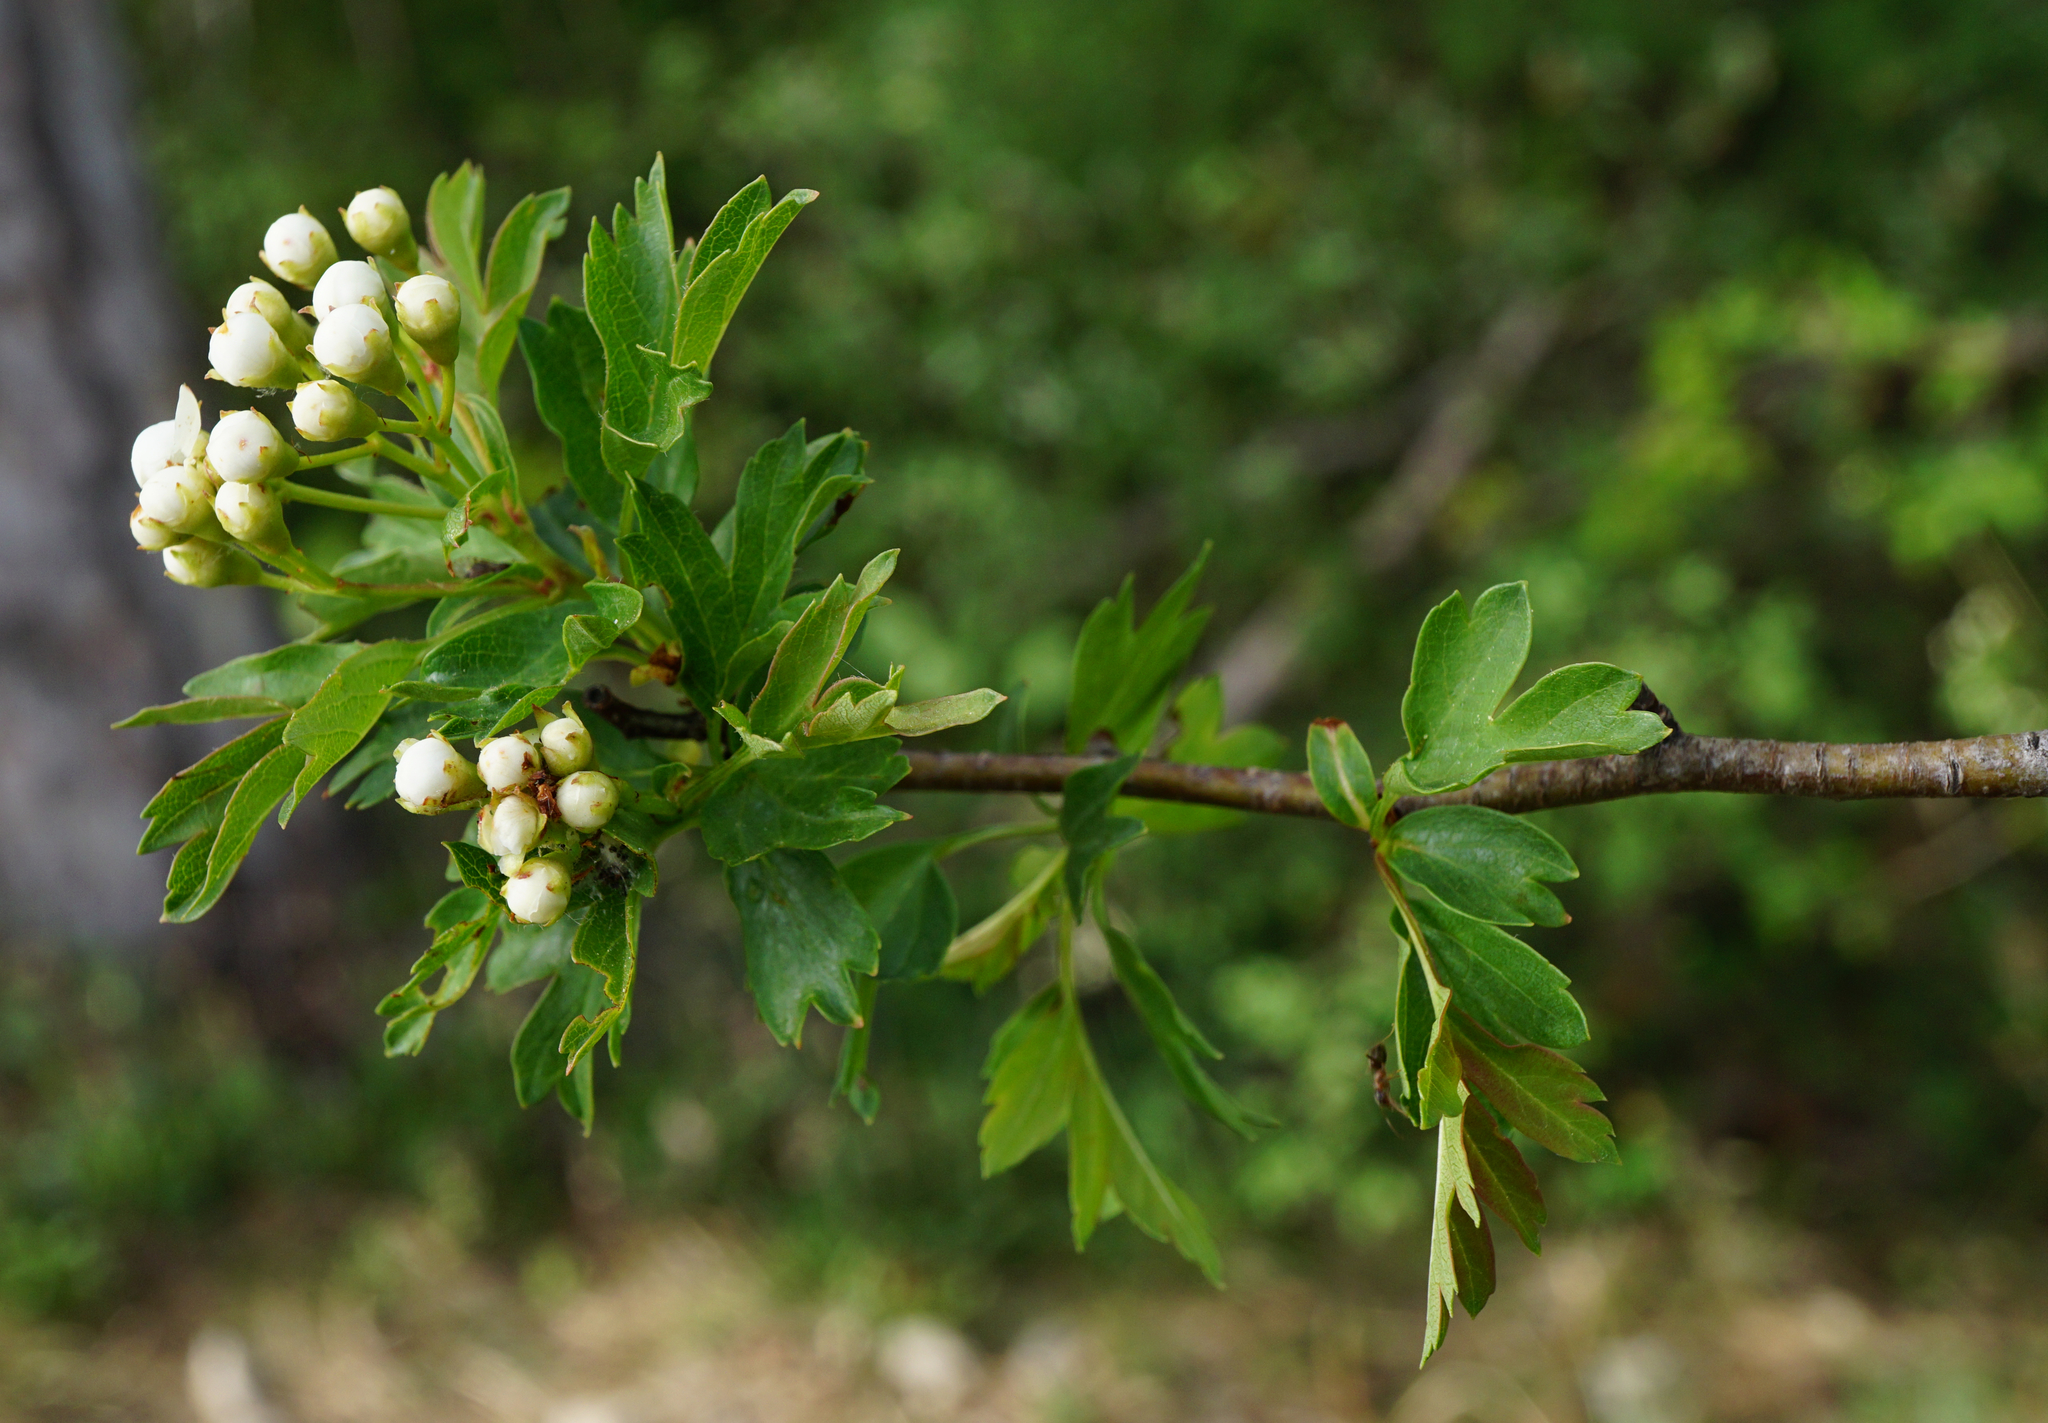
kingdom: Plantae
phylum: Tracheophyta
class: Magnoliopsida
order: Rosales
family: Rosaceae
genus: Crataegus
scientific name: Crataegus monogyna
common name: Hawthorn
